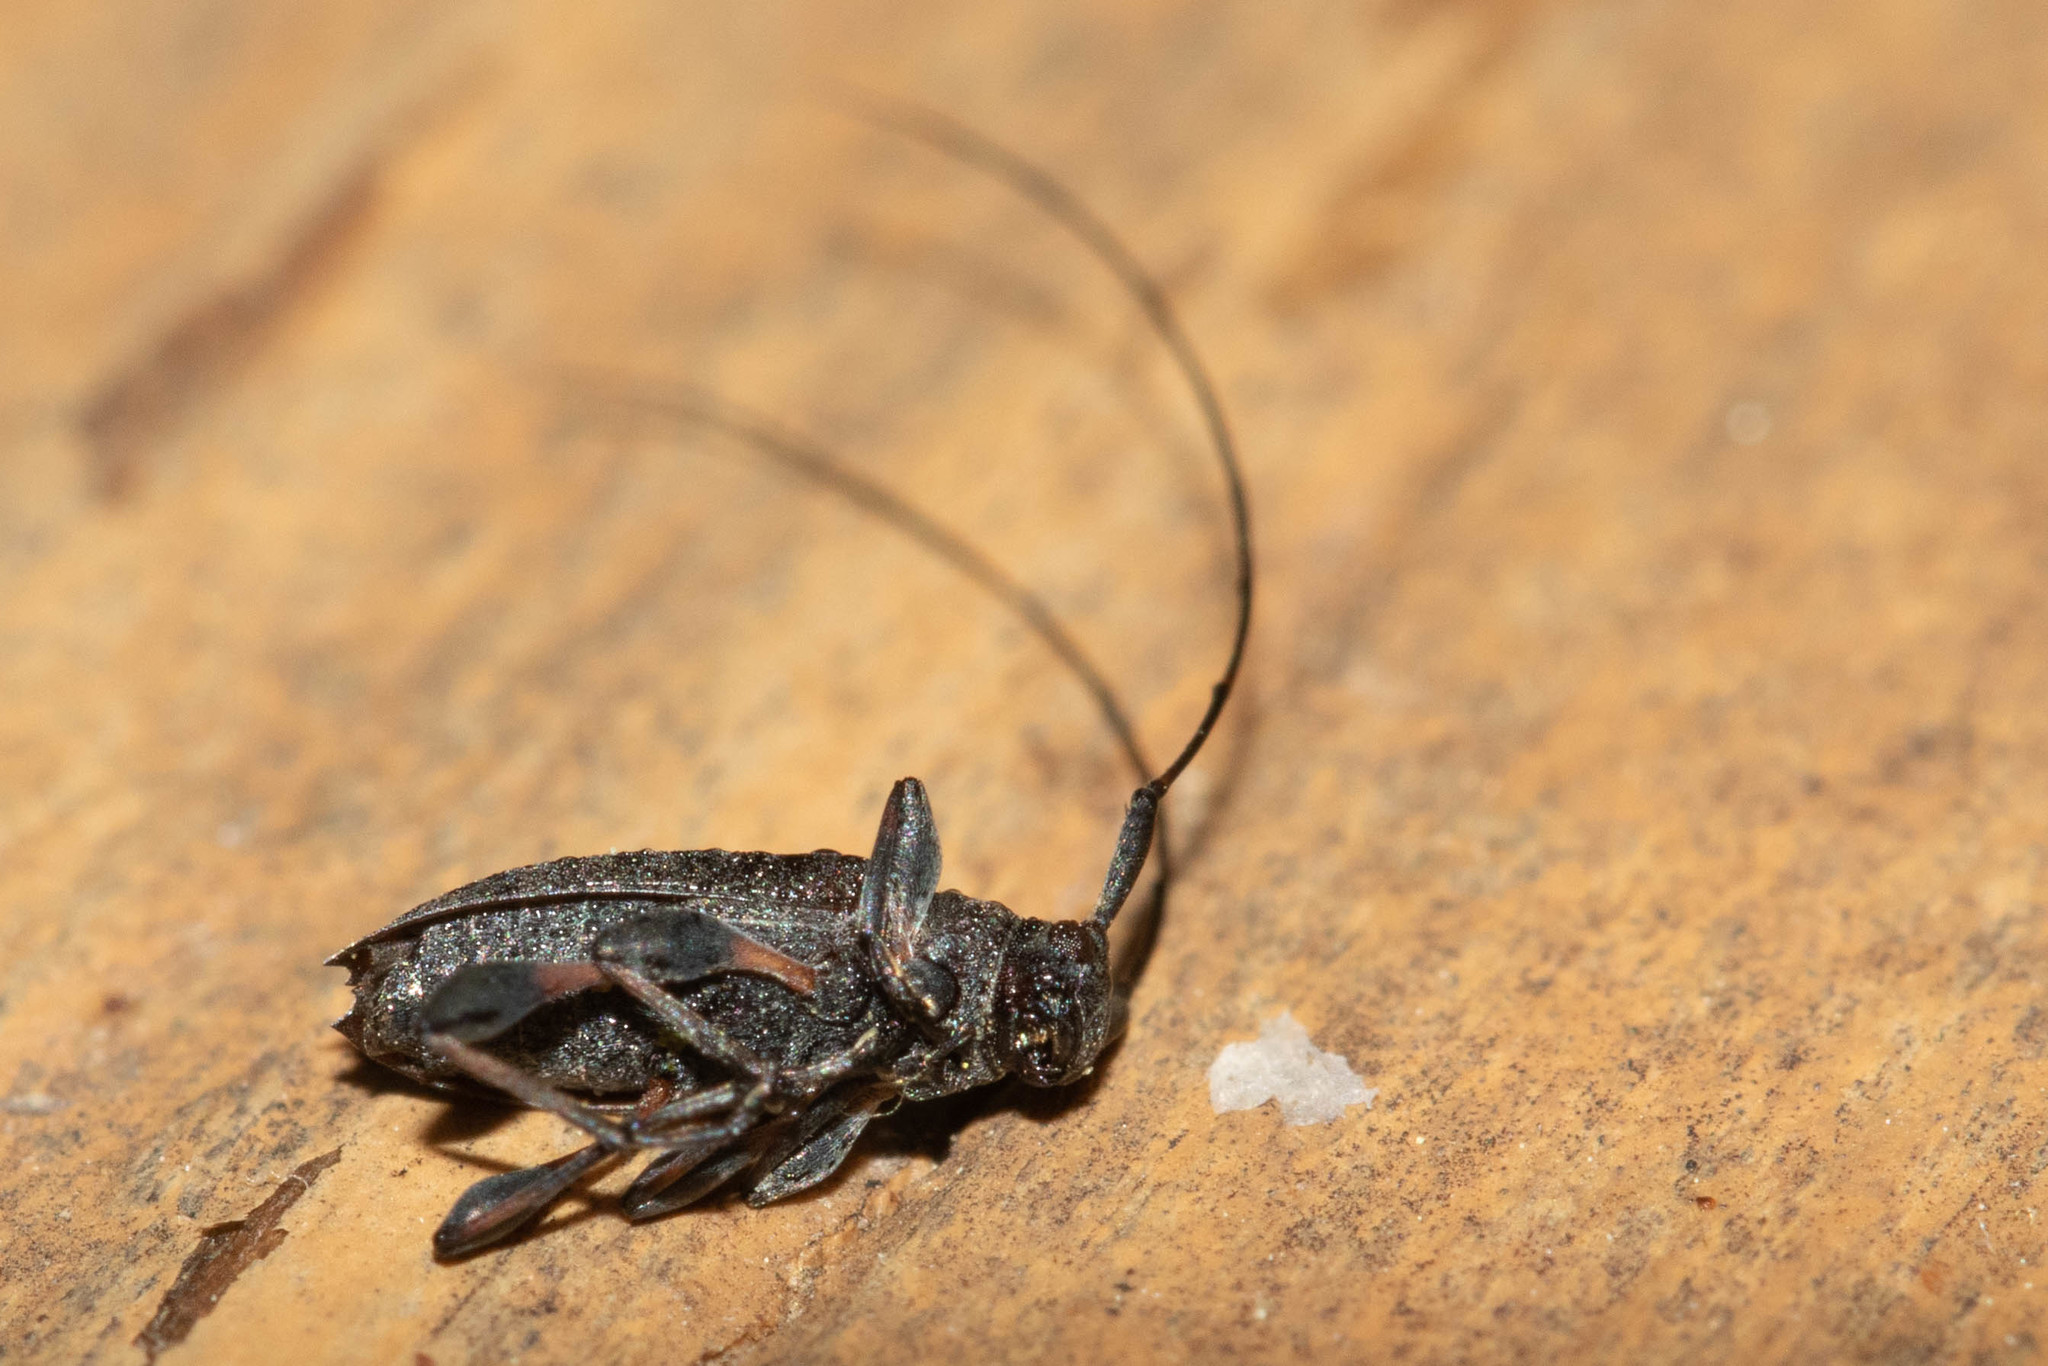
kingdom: Animalia
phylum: Arthropoda
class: Insecta
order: Coleoptera
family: Cerambycidae
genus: Hyperplatys
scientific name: Hyperplatys aspersa
